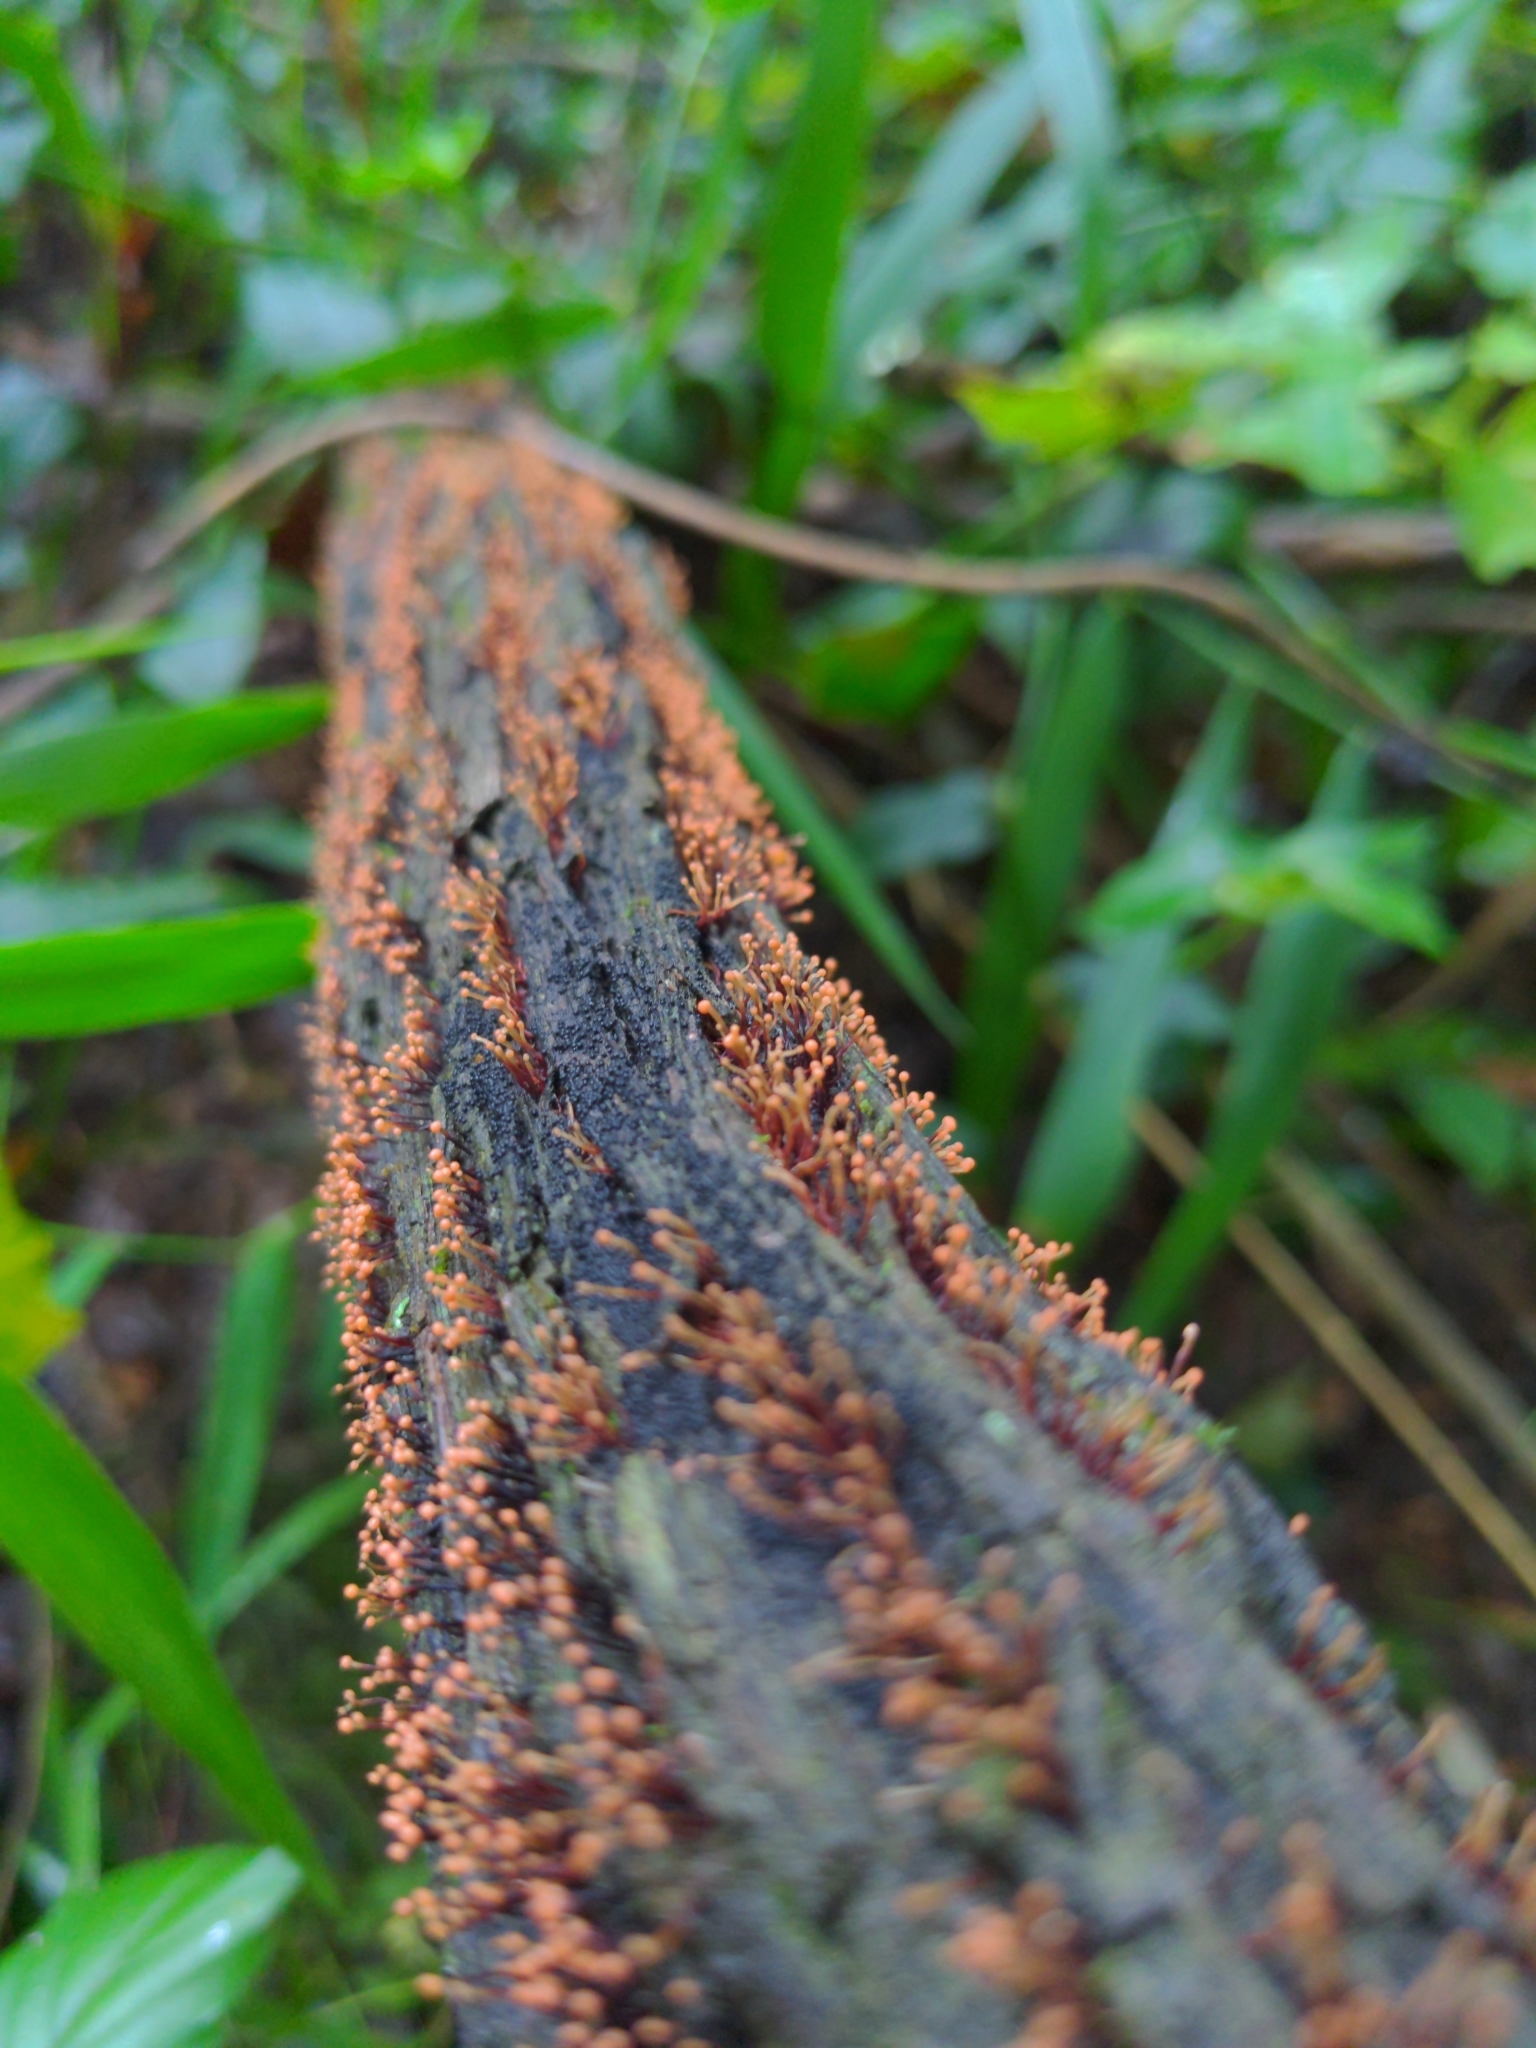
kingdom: Fungi
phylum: Ascomycota
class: Sordariomycetes
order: Hypocreales
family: Nectriaceae
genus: Nectria
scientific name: Nectria pseudotrichia
